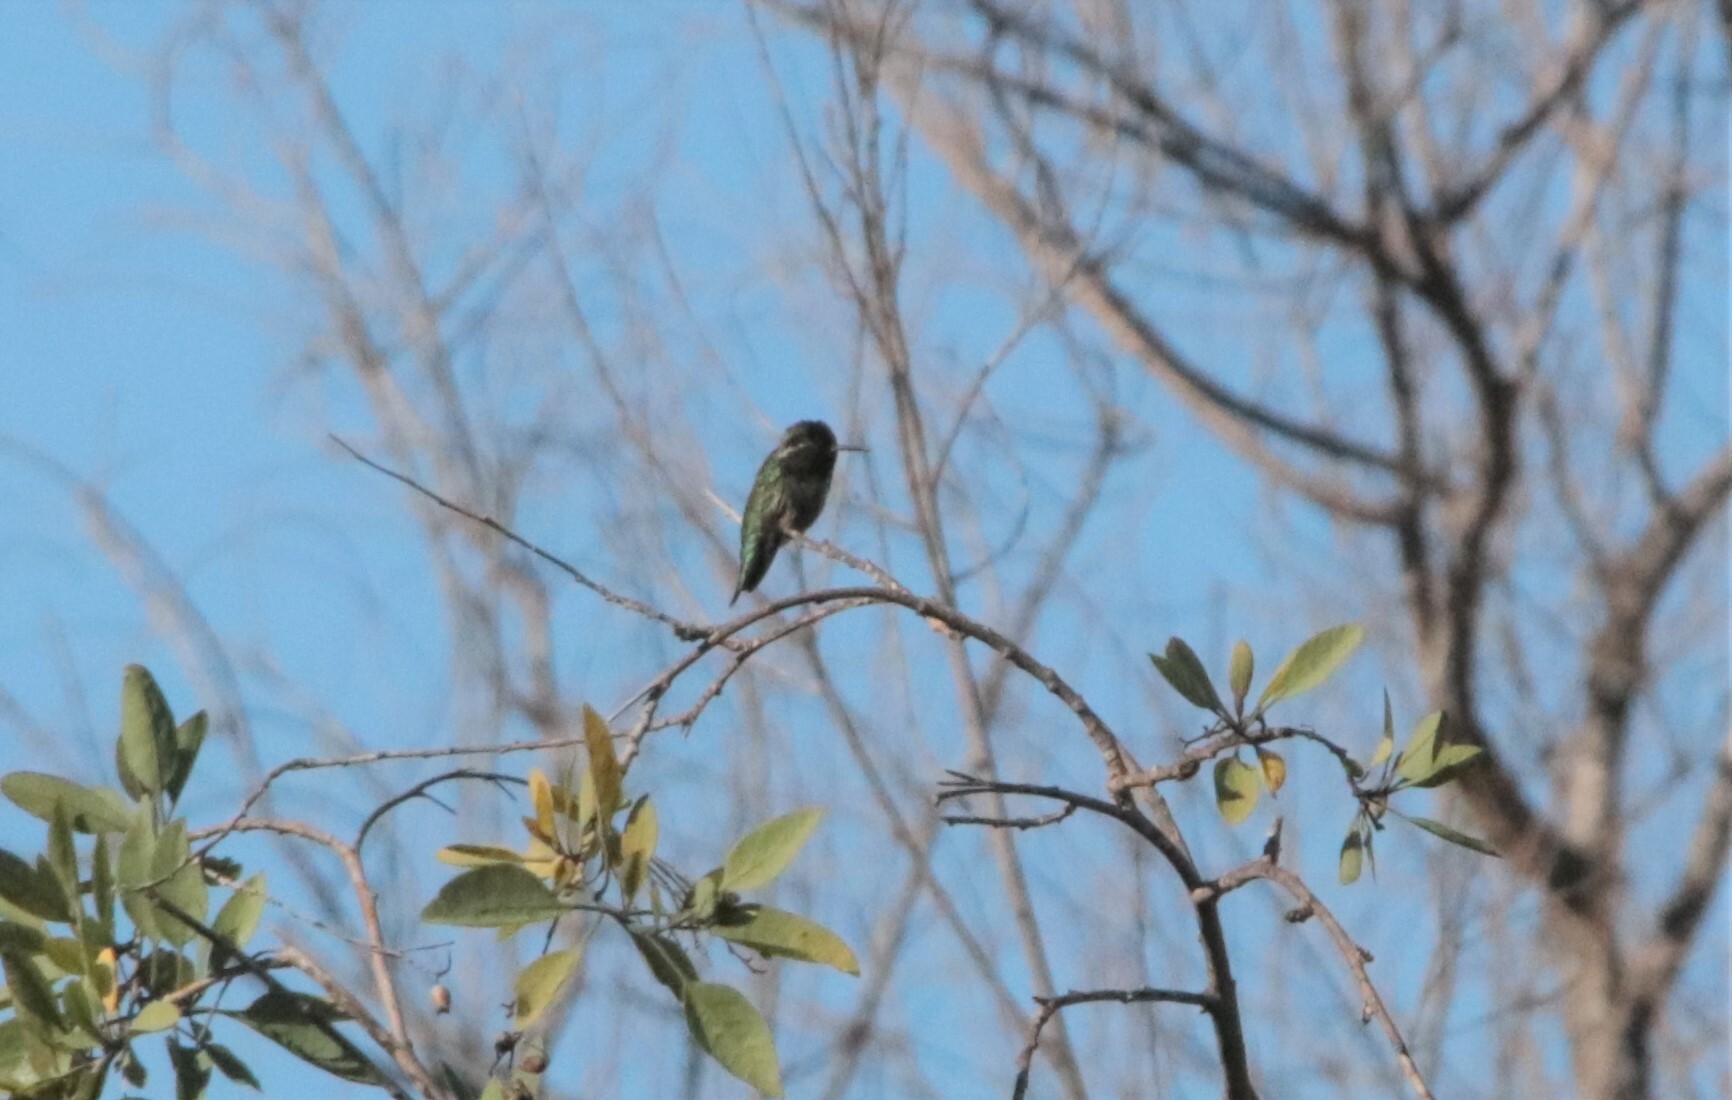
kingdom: Animalia
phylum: Chordata
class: Aves
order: Apodiformes
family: Trochilidae
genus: Calypte
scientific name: Calypte anna
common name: Anna's hummingbird
